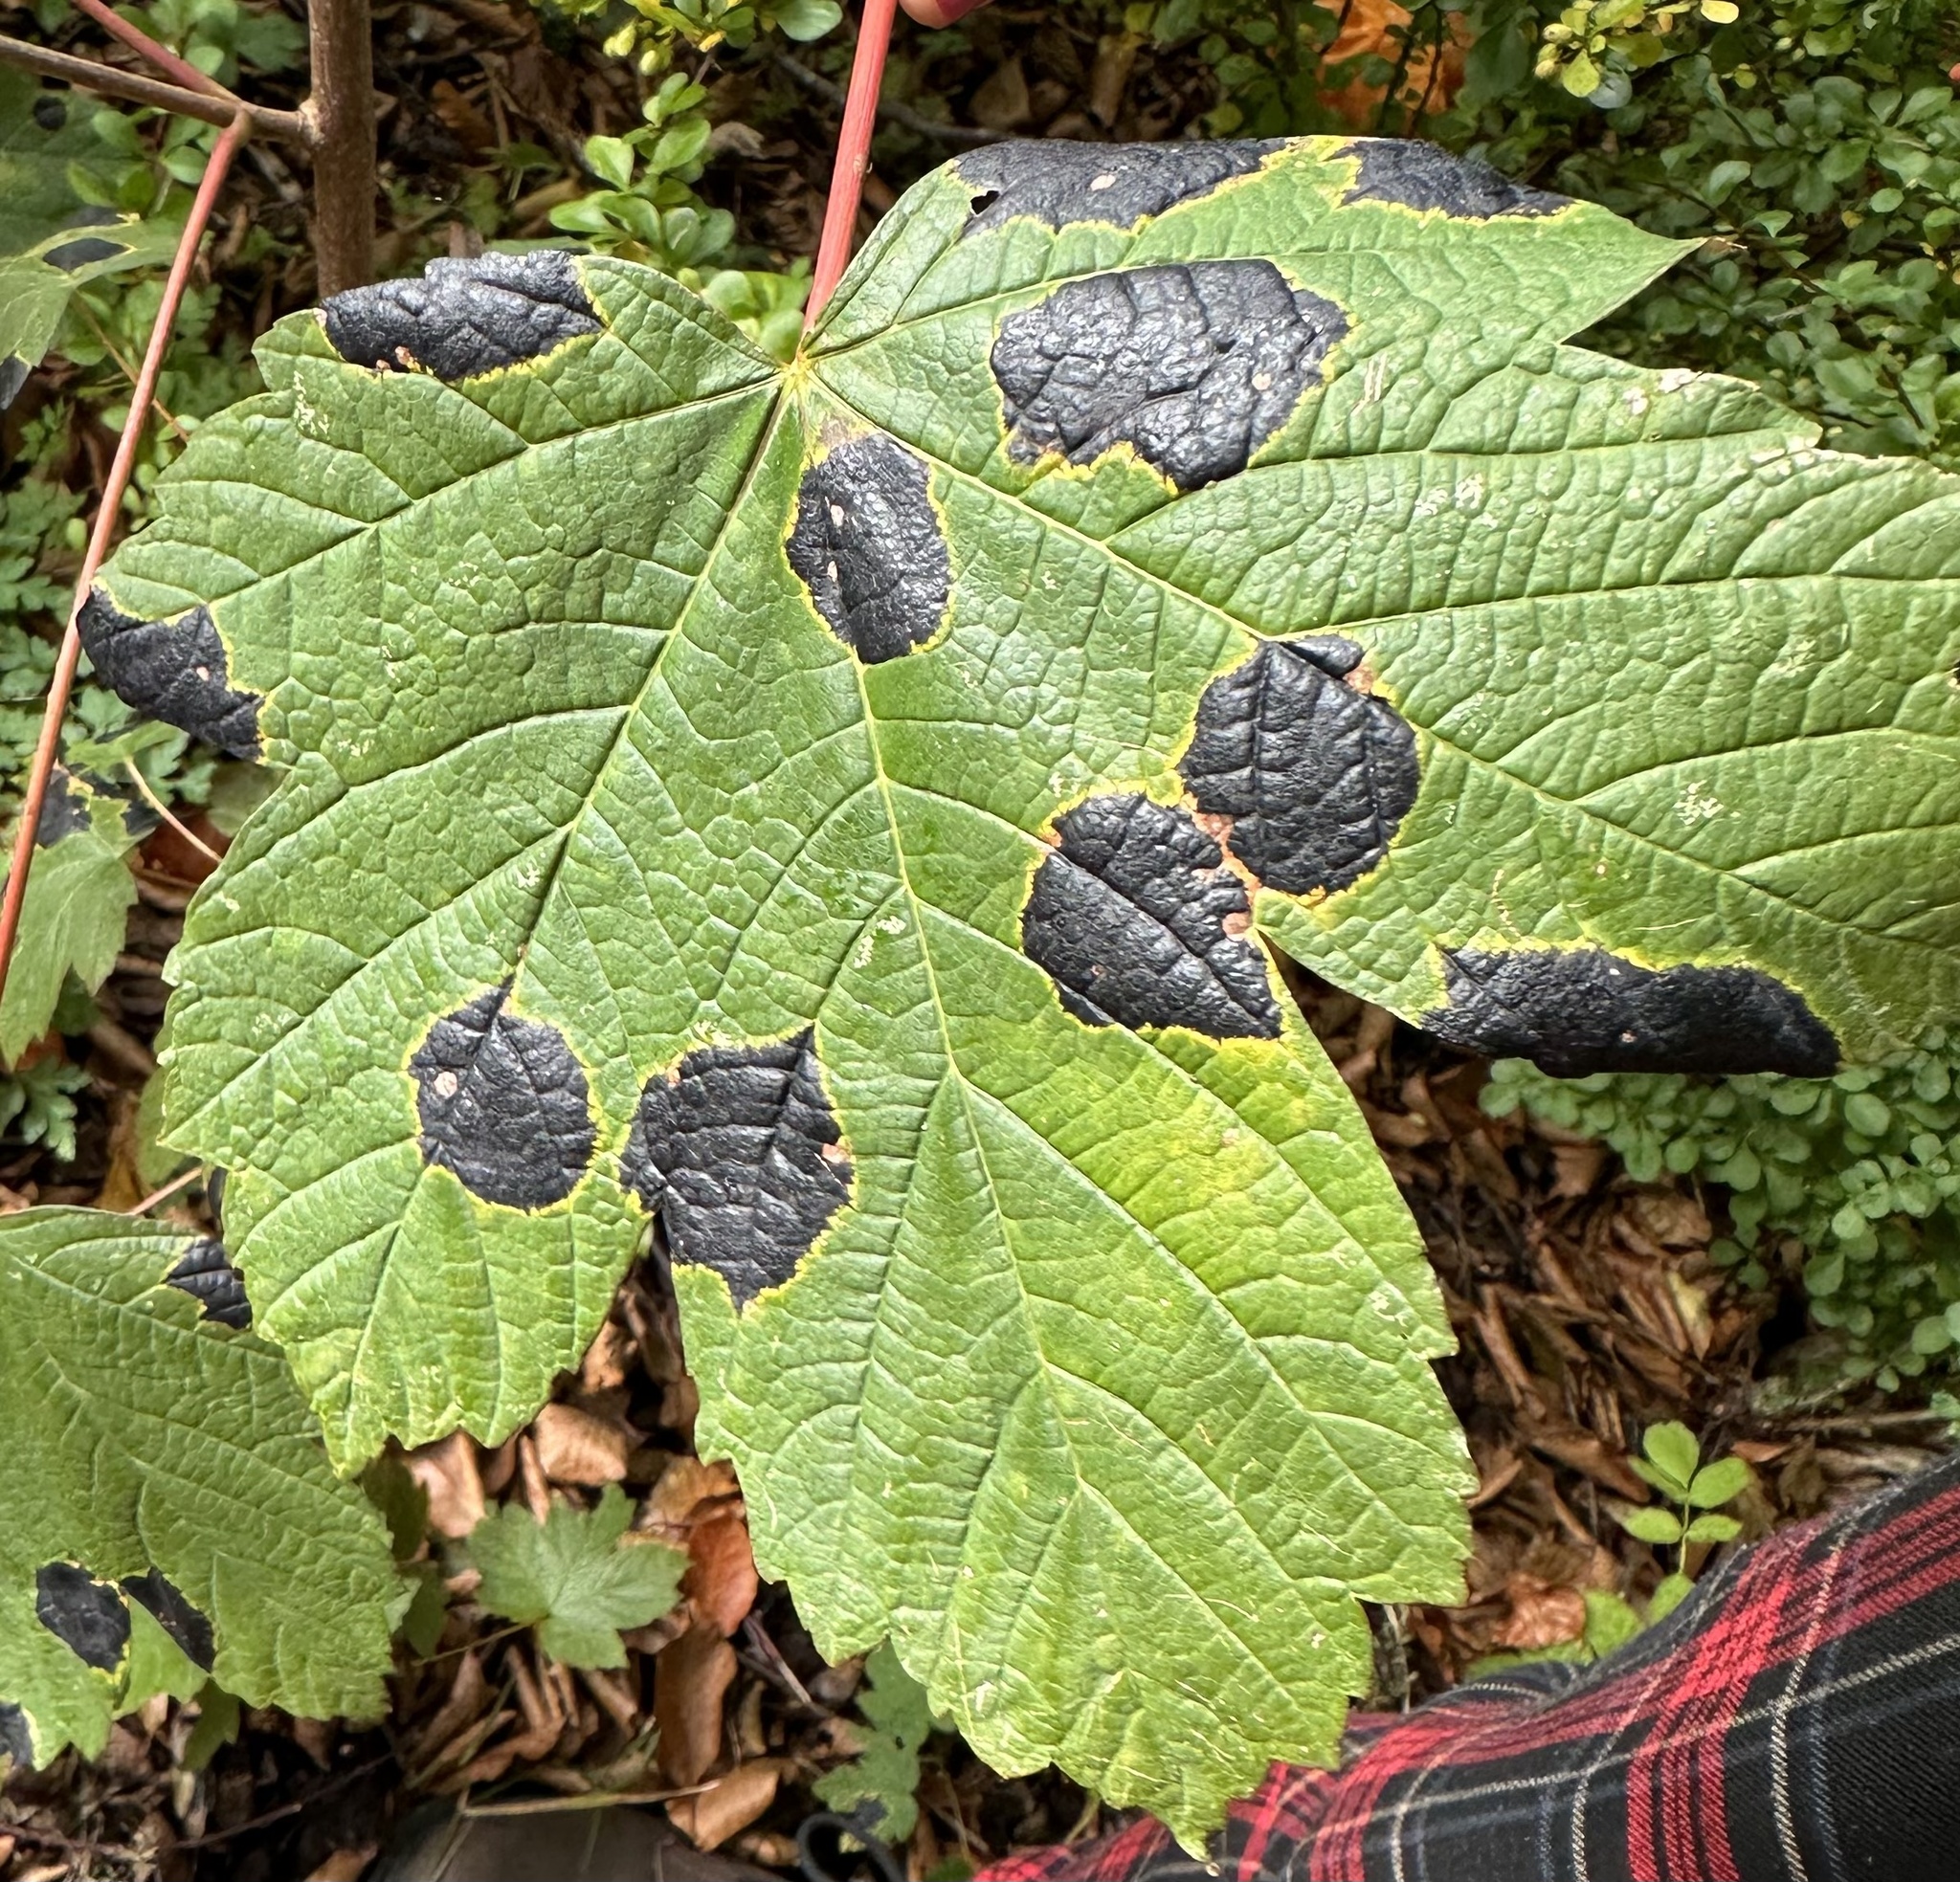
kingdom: Fungi
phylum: Ascomycota
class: Leotiomycetes
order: Rhytismatales
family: Rhytismataceae
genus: Rhytisma
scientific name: Rhytisma acerinum
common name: European tar spot
